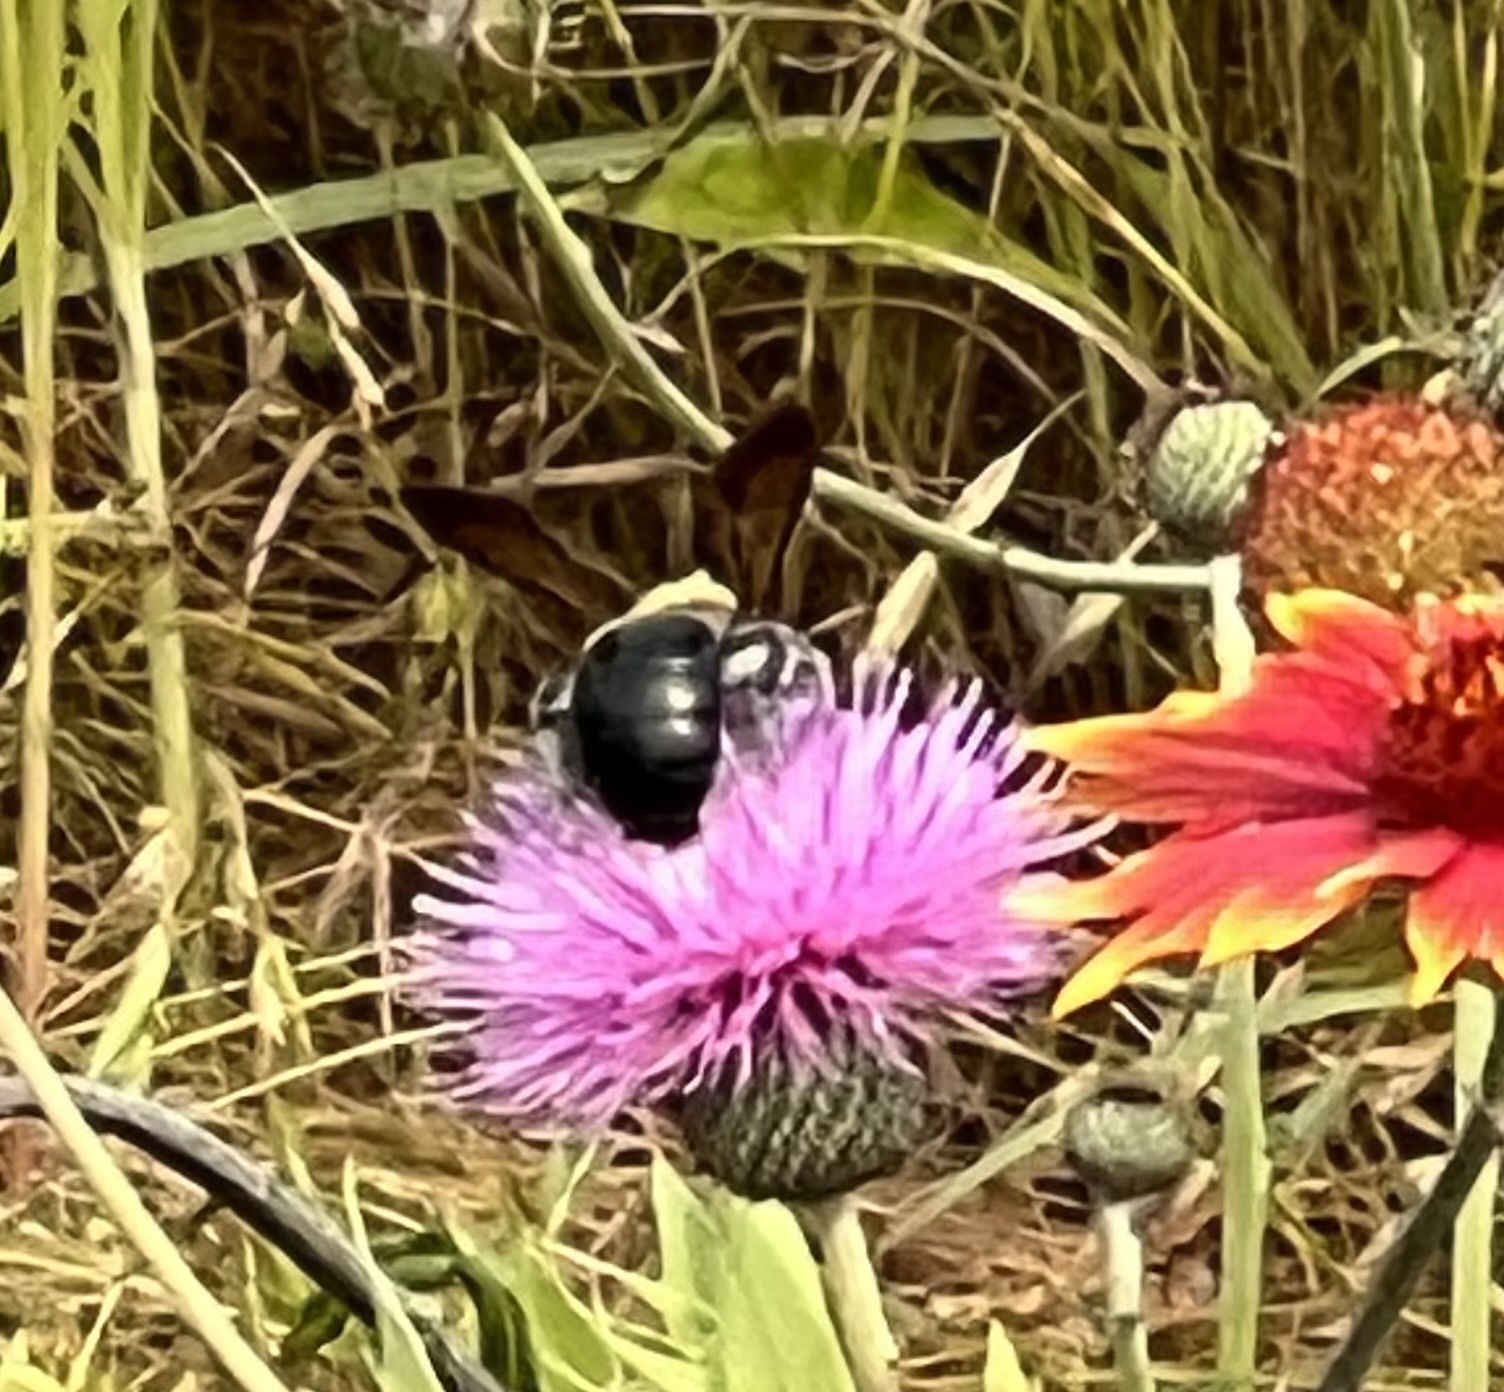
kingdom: Animalia
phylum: Arthropoda
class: Insecta
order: Hymenoptera
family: Apidae
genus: Xylocopa
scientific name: Xylocopa virginica
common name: Carpenter bee
